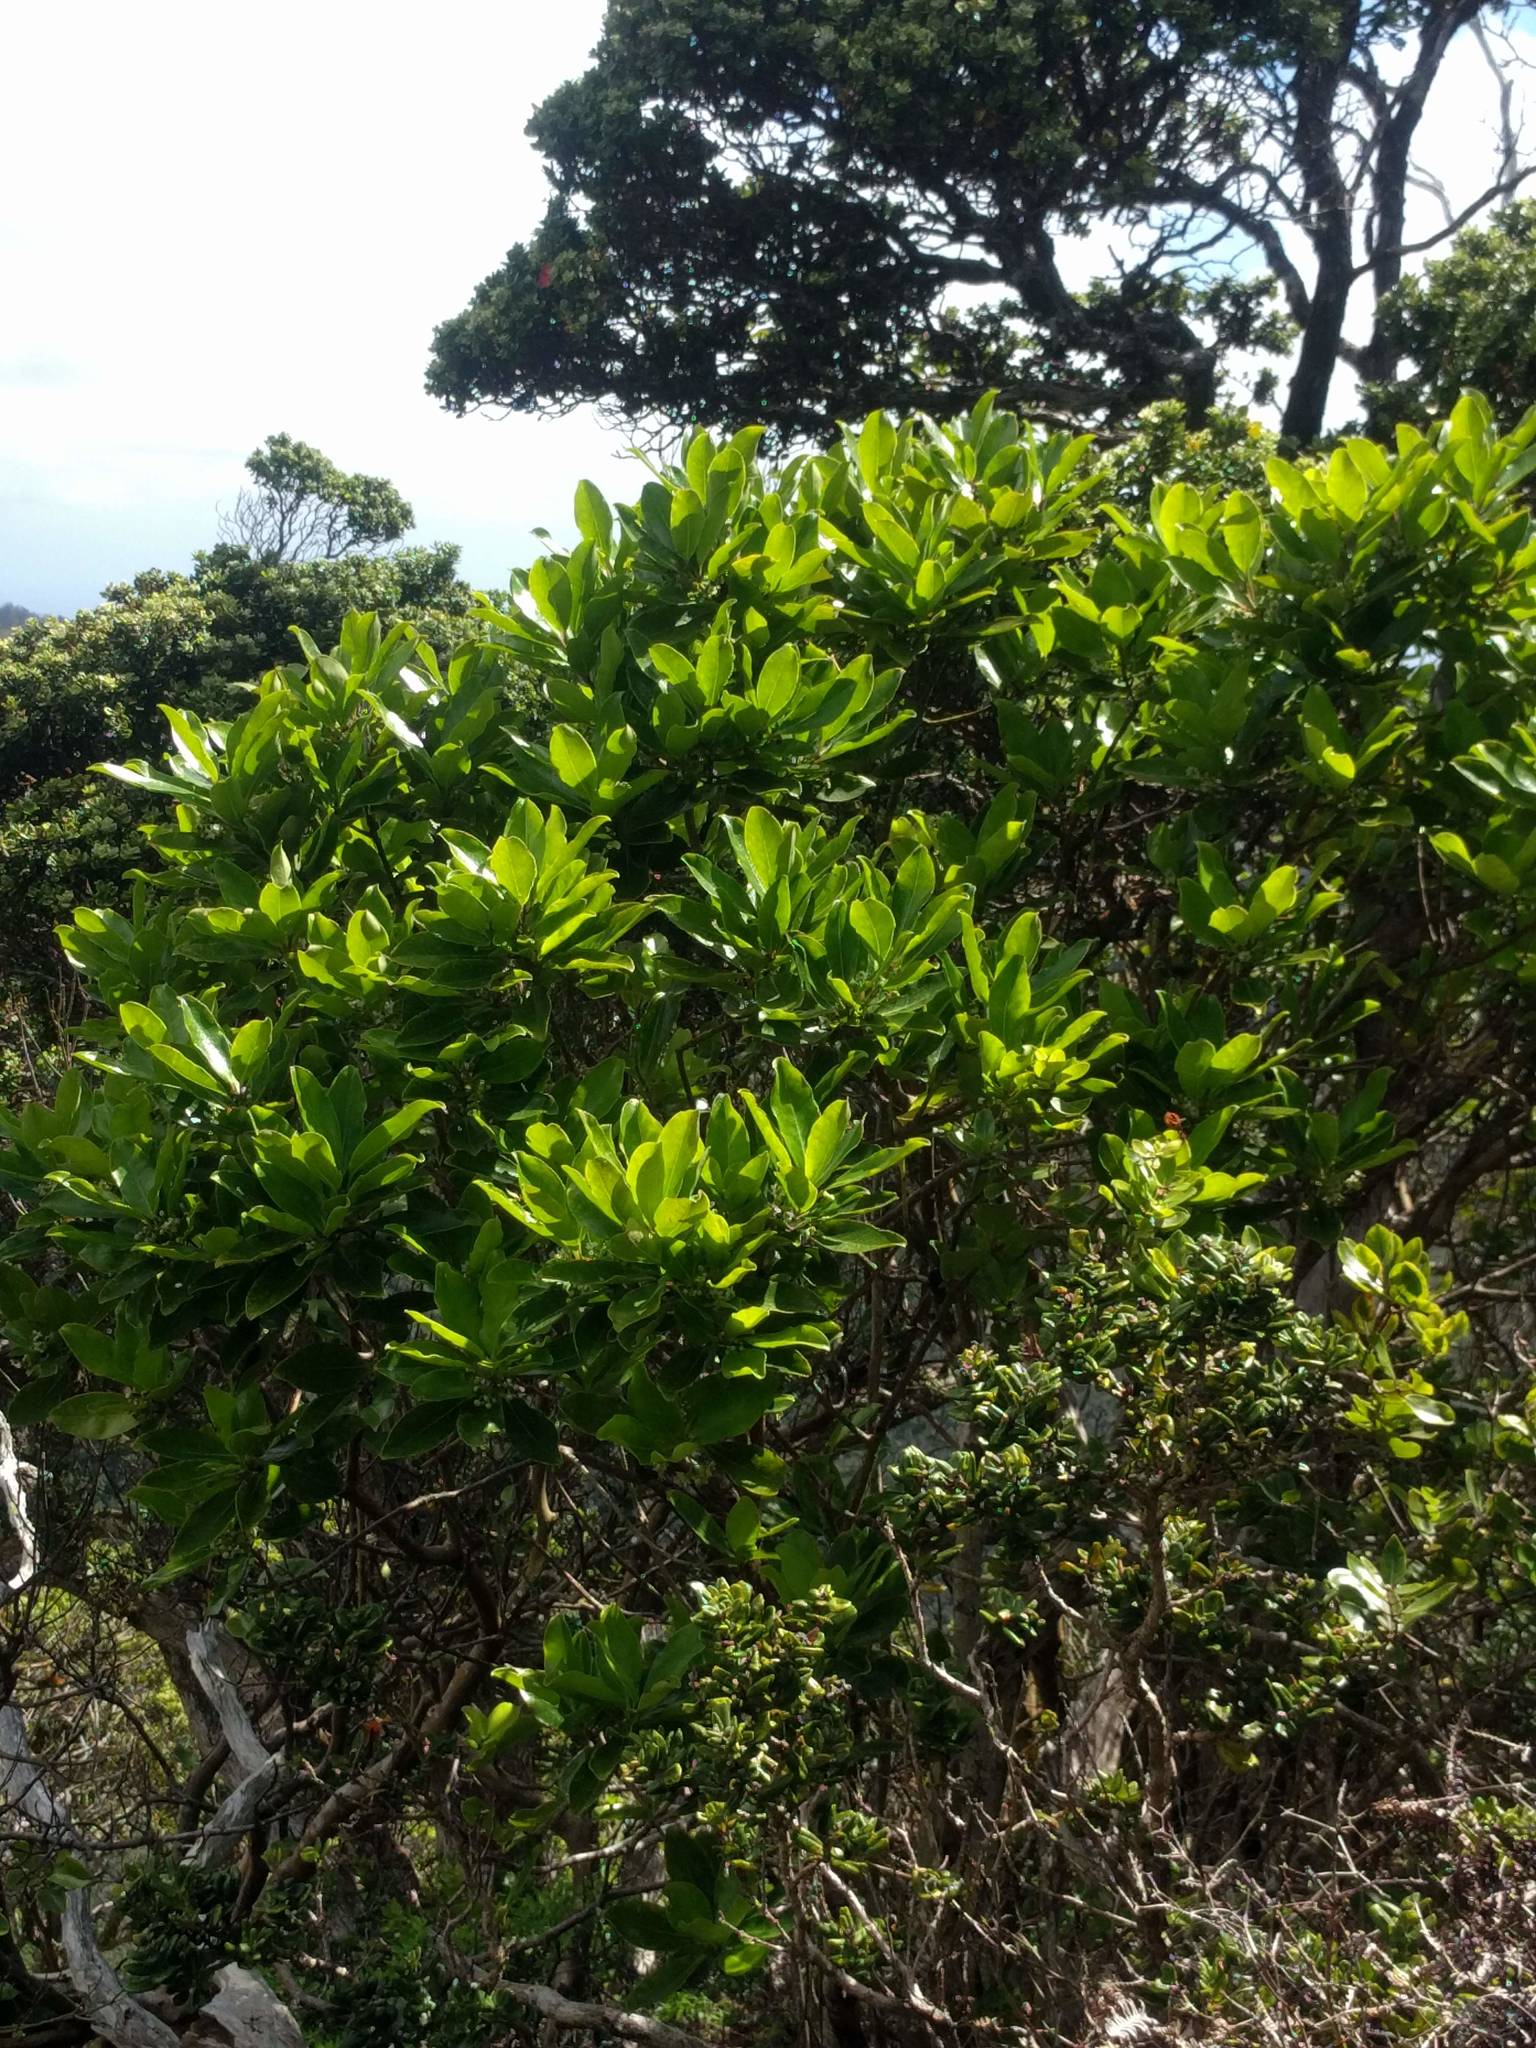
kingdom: Plantae
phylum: Tracheophyta
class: Magnoliopsida
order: Aquifoliales
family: Aquifoliaceae
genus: Ilex
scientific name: Ilex anomala
